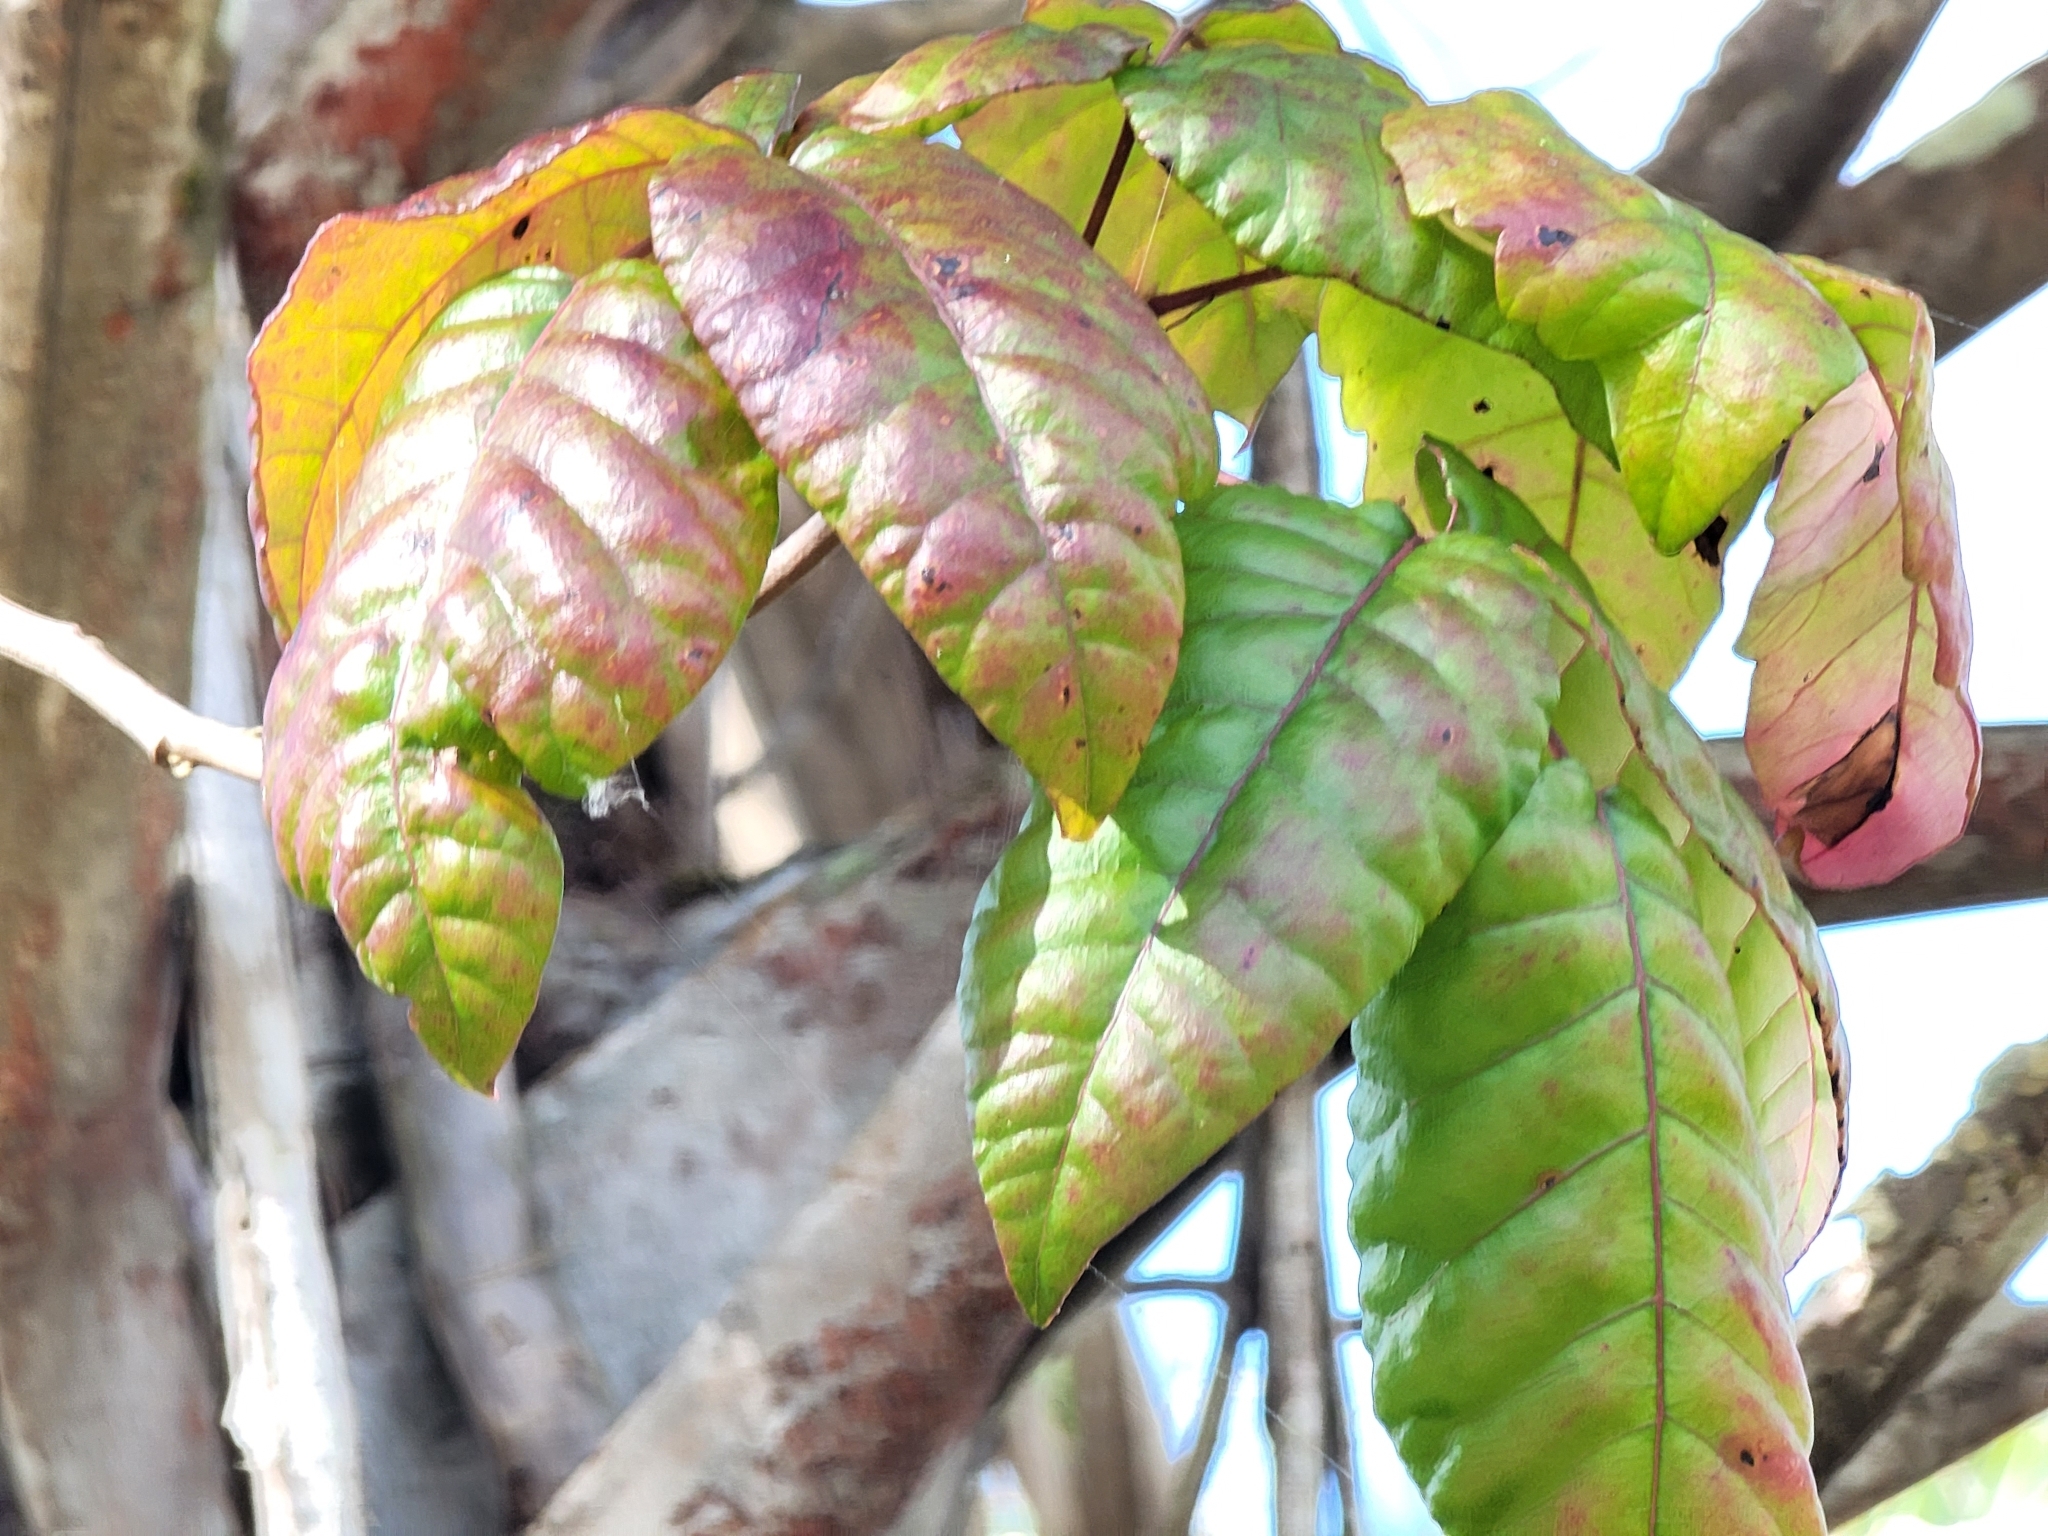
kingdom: Plantae
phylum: Tracheophyta
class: Magnoliopsida
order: Sapindales
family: Anacardiaceae
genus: Toxicodendron
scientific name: Toxicodendron radicans
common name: Poison ivy
